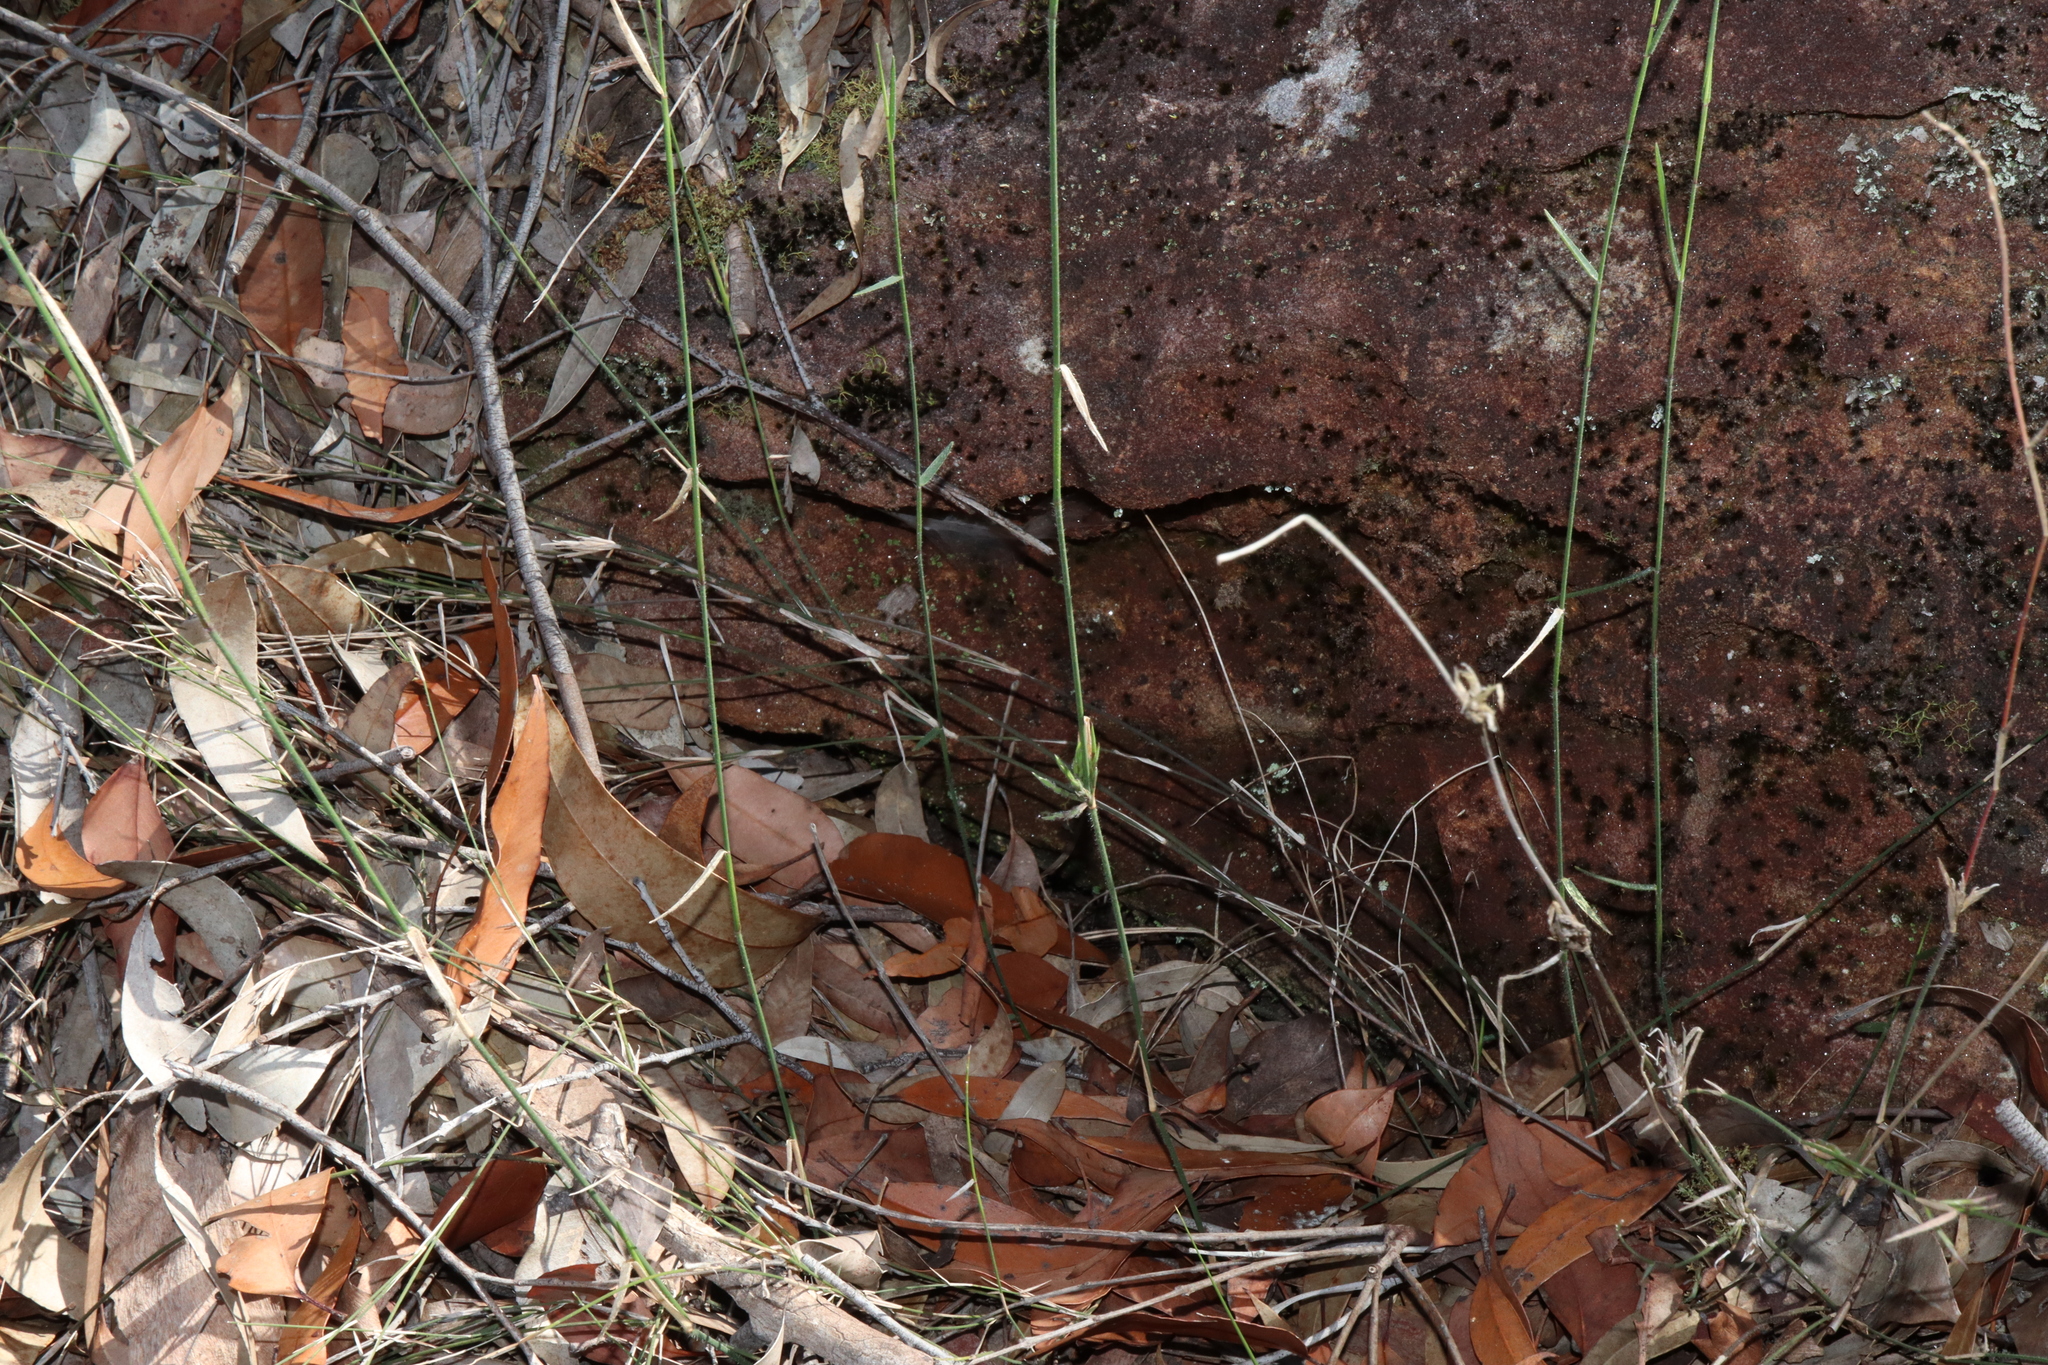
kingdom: Plantae
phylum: Tracheophyta
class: Liliopsida
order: Poales
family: Poaceae
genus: Entolasia
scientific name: Entolasia stricta
